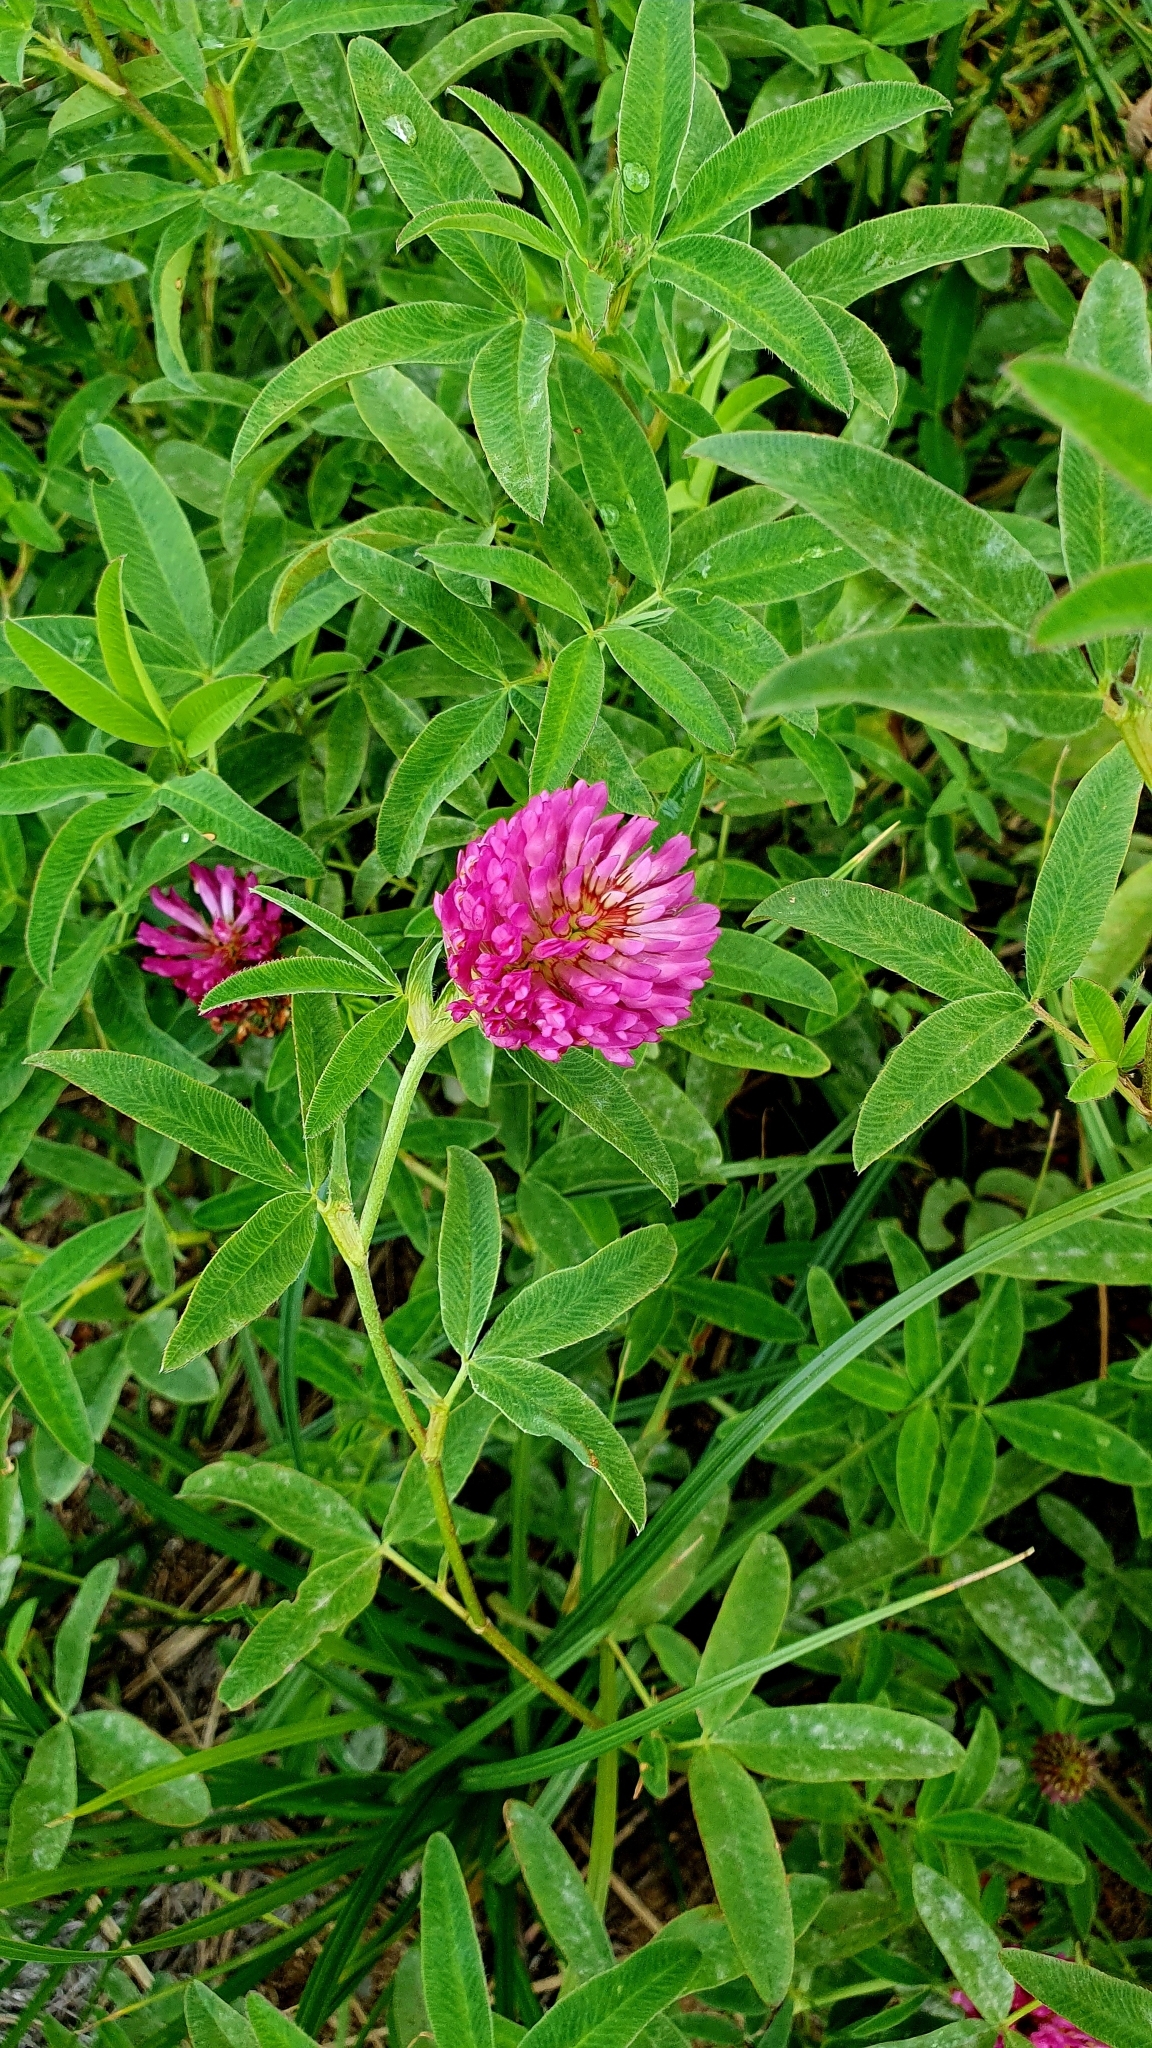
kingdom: Plantae
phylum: Tracheophyta
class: Magnoliopsida
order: Fabales
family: Fabaceae
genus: Trifolium
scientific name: Trifolium medium
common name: Zigzag clover
